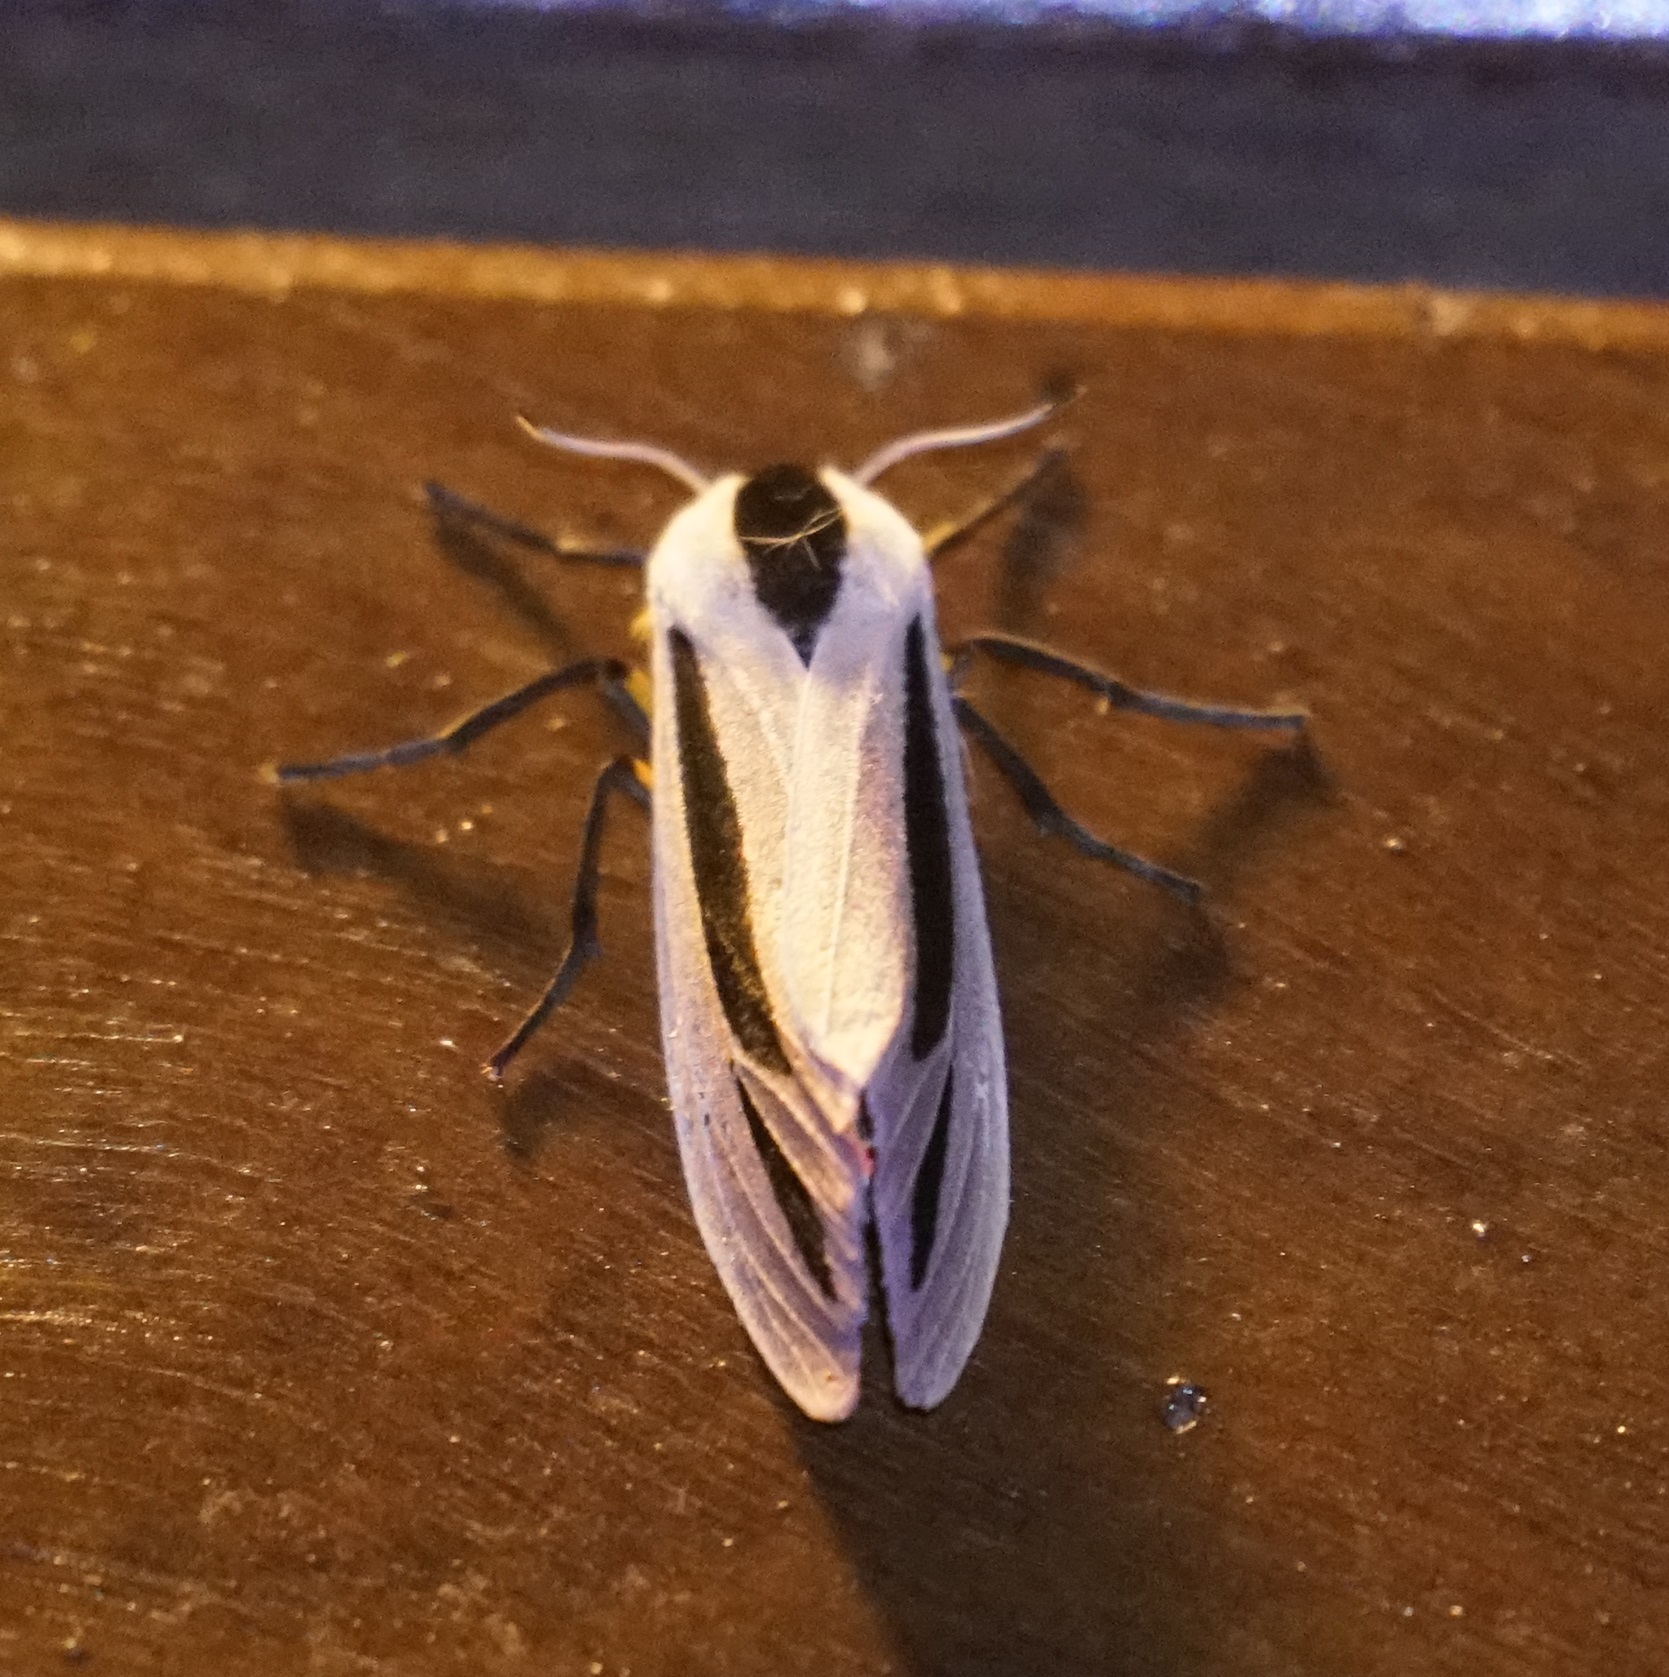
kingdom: Animalia
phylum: Arthropoda
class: Insecta
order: Lepidoptera
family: Erebidae
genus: Creatonotos
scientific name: Creatonotos gangis
